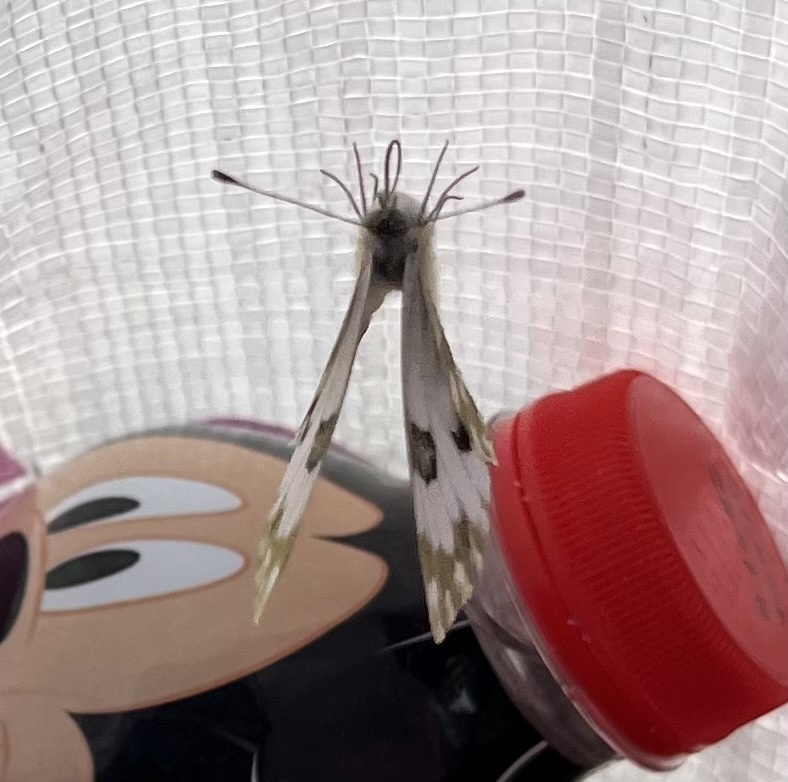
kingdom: Animalia
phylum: Arthropoda
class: Insecta
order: Lepidoptera
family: Pieridae
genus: Pontia
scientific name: Pontia edusa
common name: Eastern bath white
